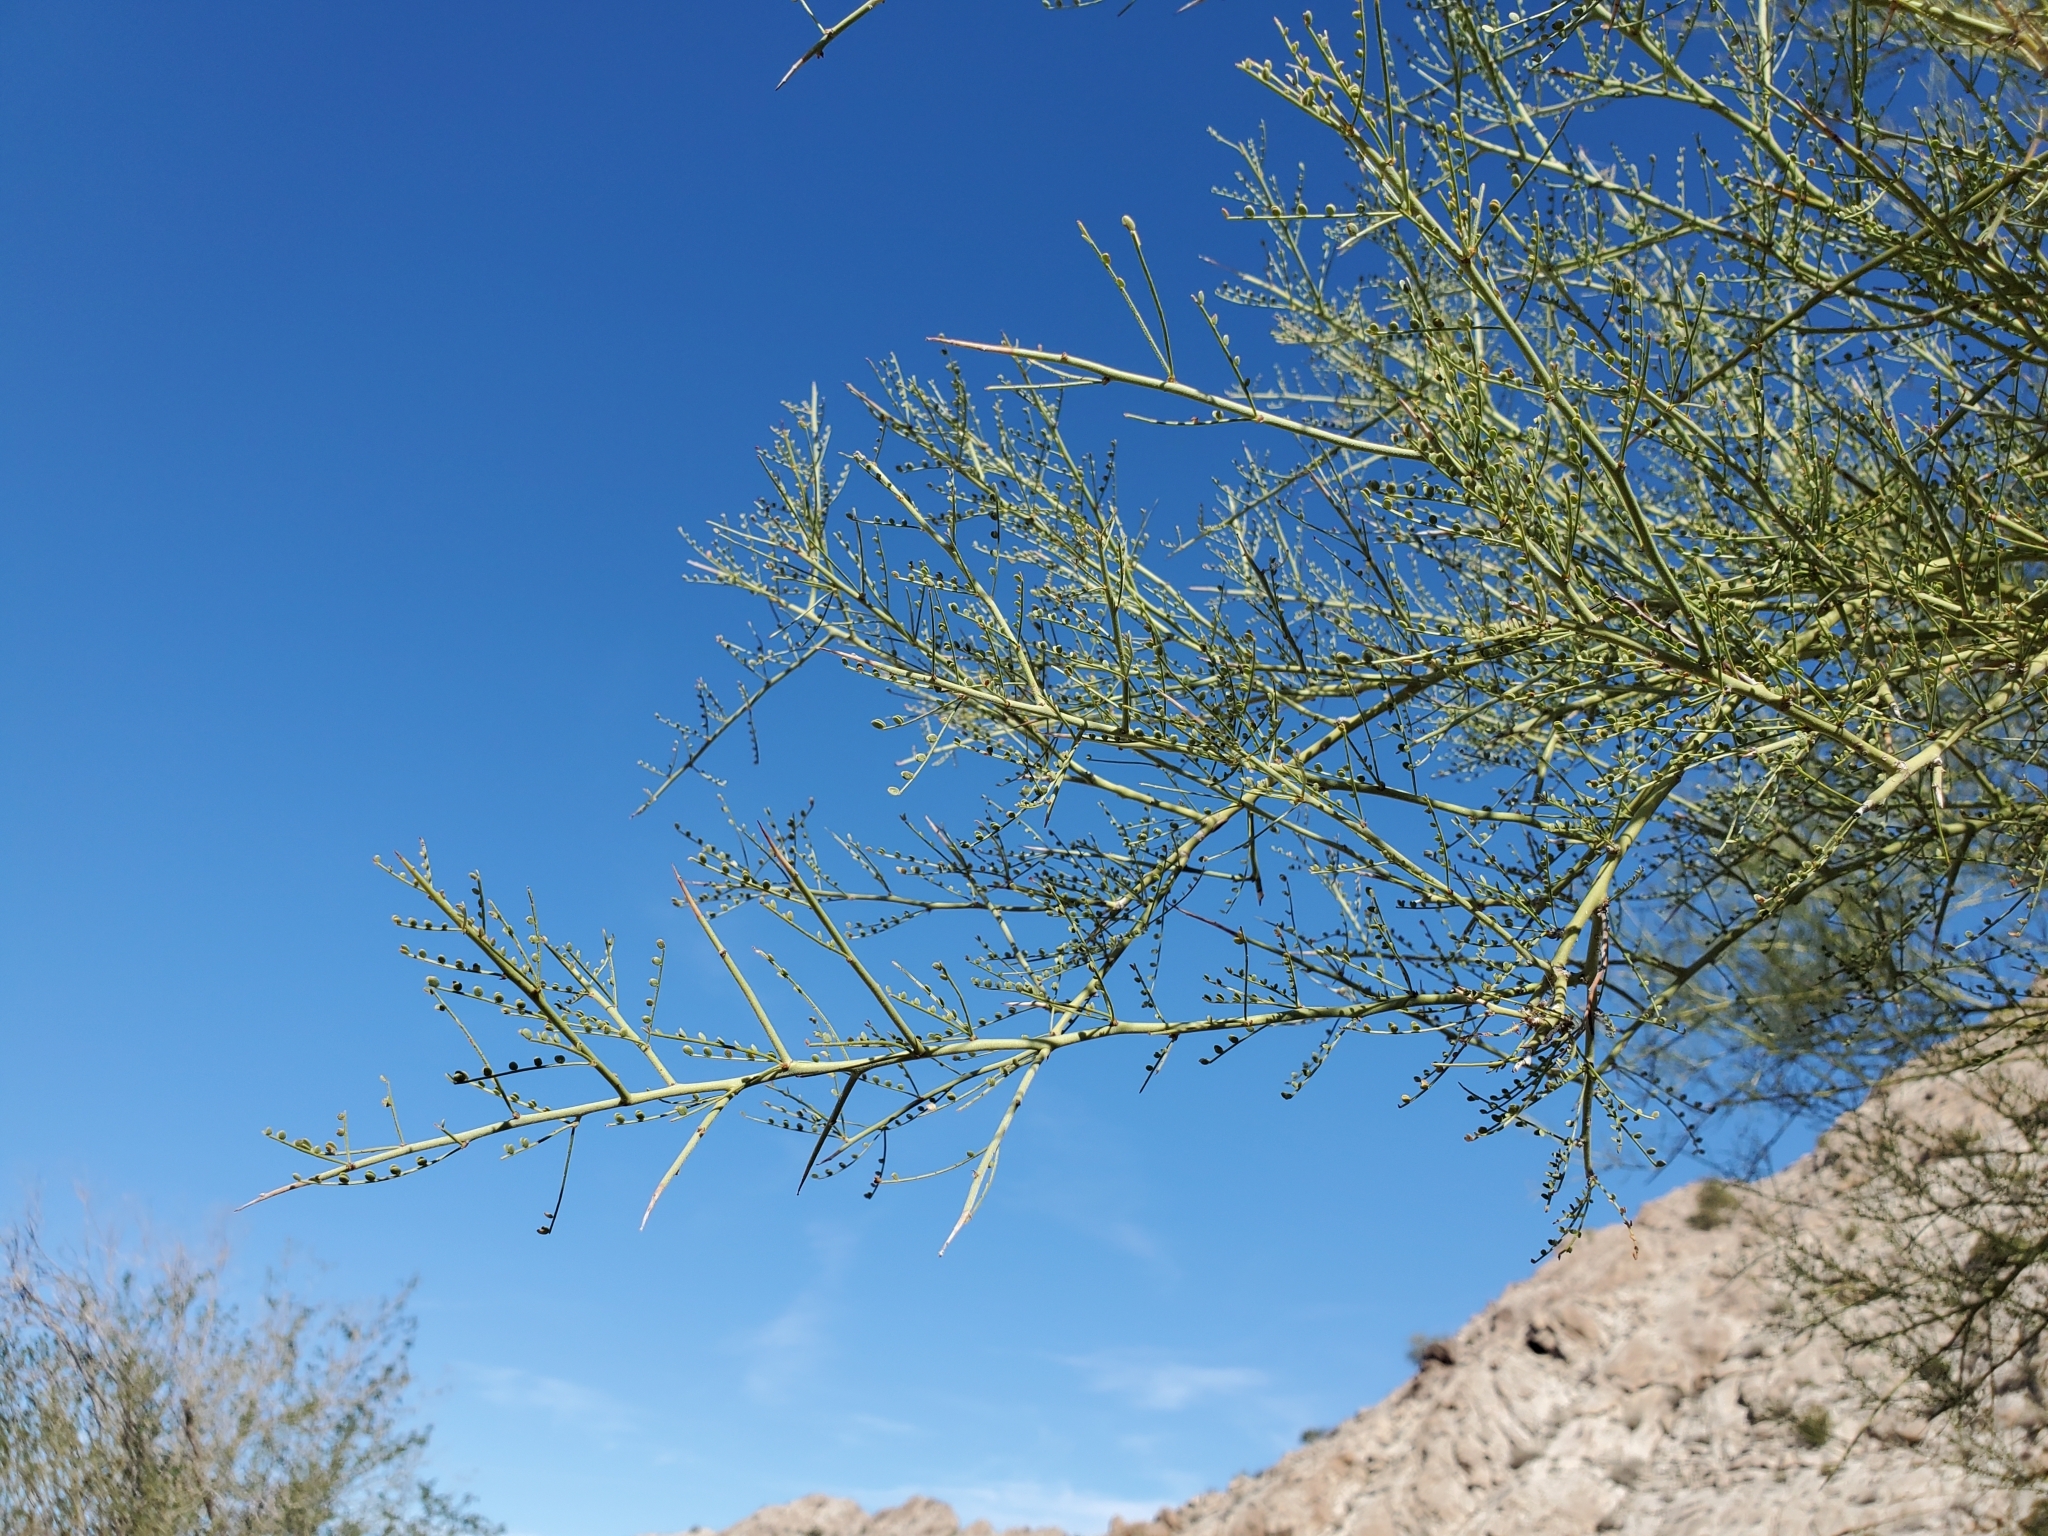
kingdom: Plantae
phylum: Tracheophyta
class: Magnoliopsida
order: Fabales
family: Fabaceae
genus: Parkinsonia
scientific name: Parkinsonia microphylla
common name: Yellow paloverde
